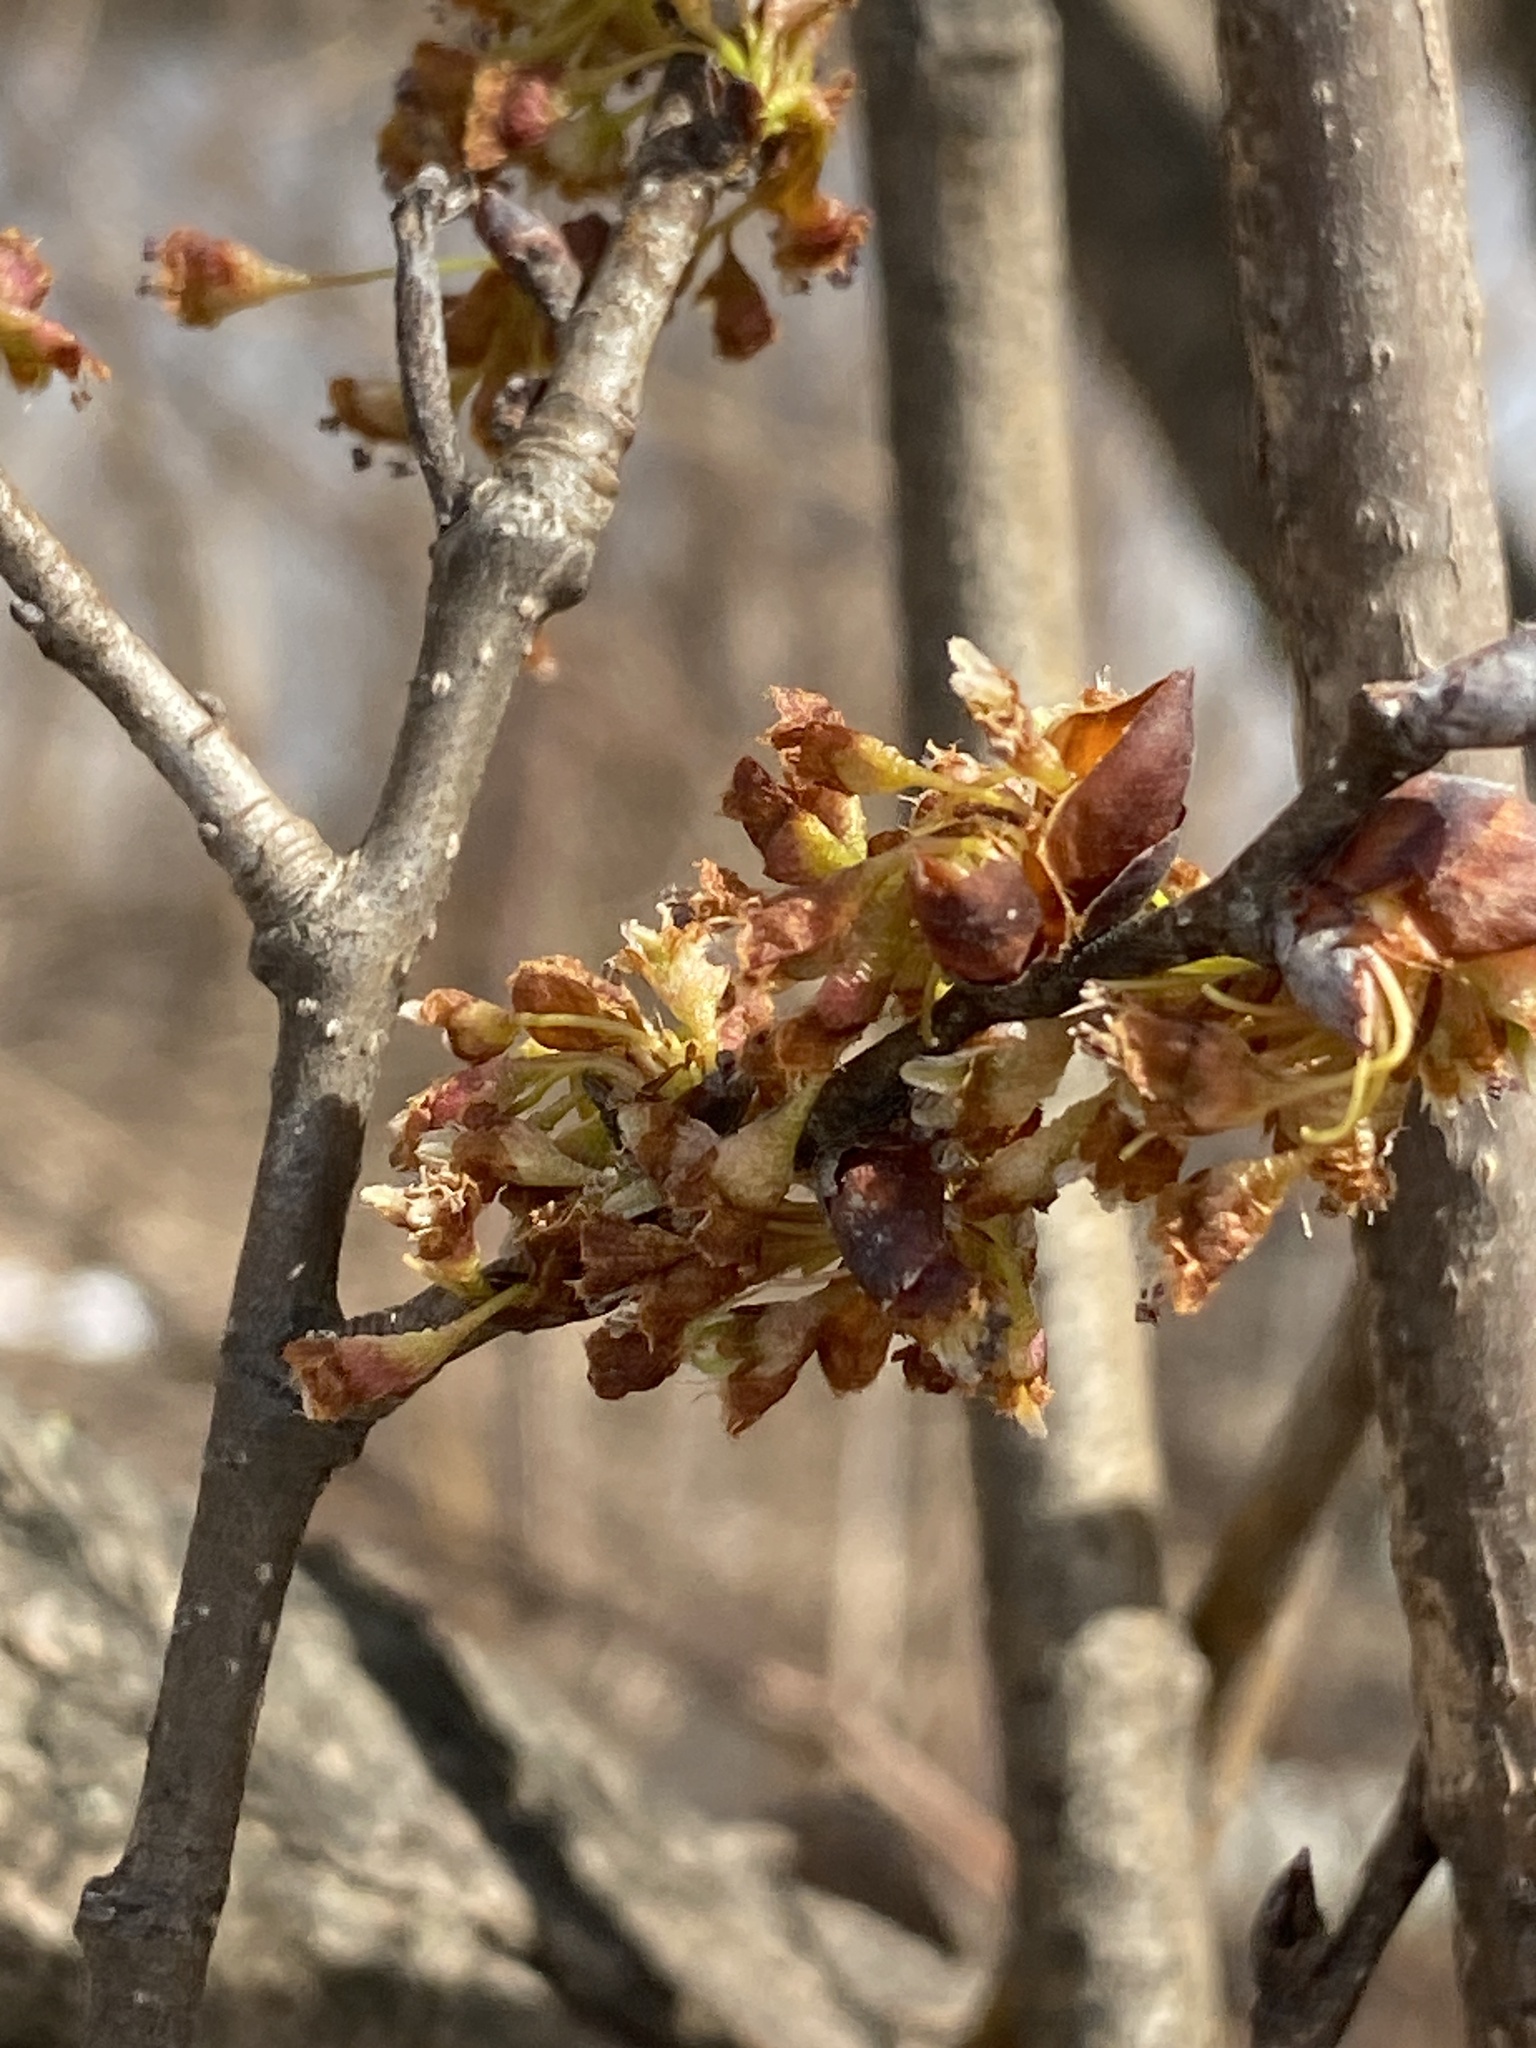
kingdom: Plantae
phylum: Tracheophyta
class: Magnoliopsida
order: Rosales
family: Ulmaceae
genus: Ulmus
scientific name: Ulmus americana
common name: American elm
